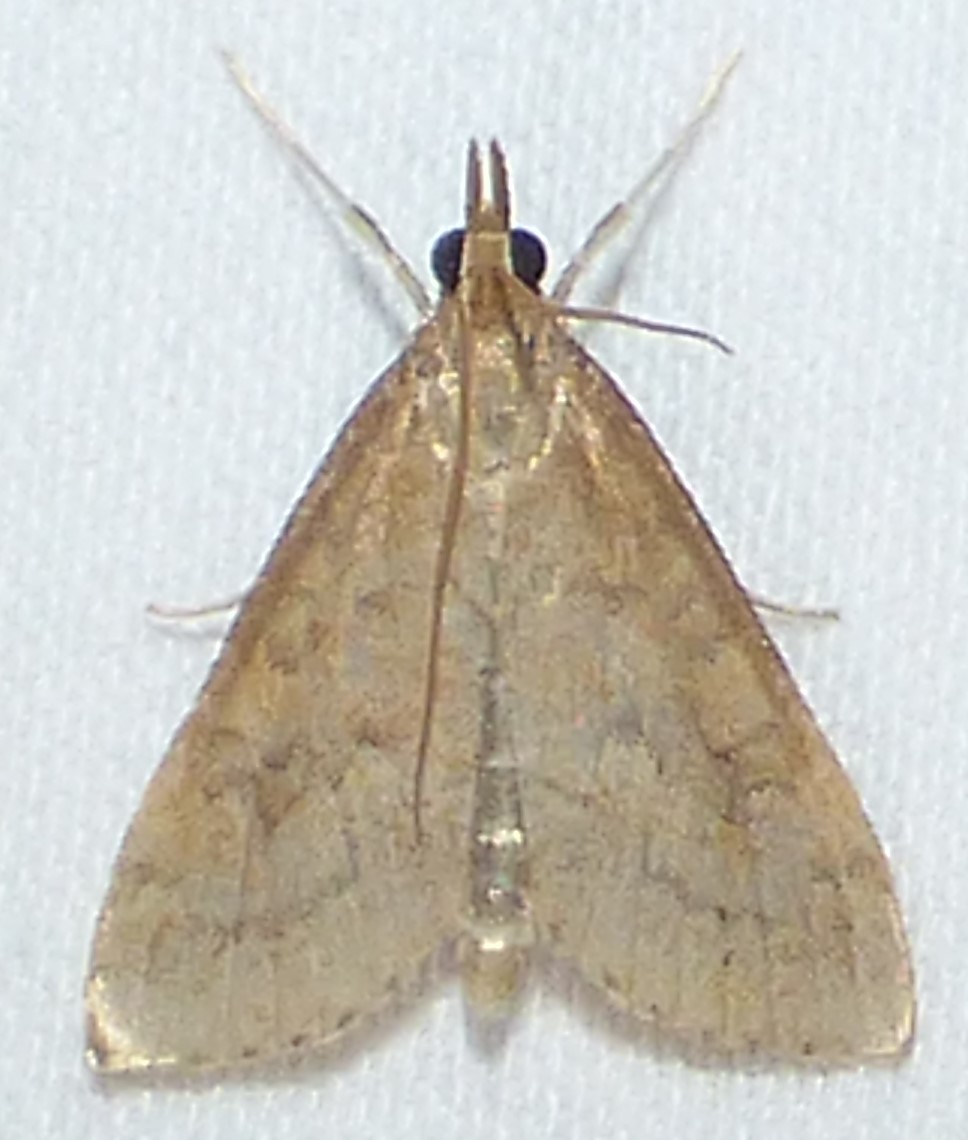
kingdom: Animalia
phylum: Arthropoda
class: Insecta
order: Lepidoptera
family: Crambidae
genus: Udea
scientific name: Udea rubigalis
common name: Celery leaftier moth
